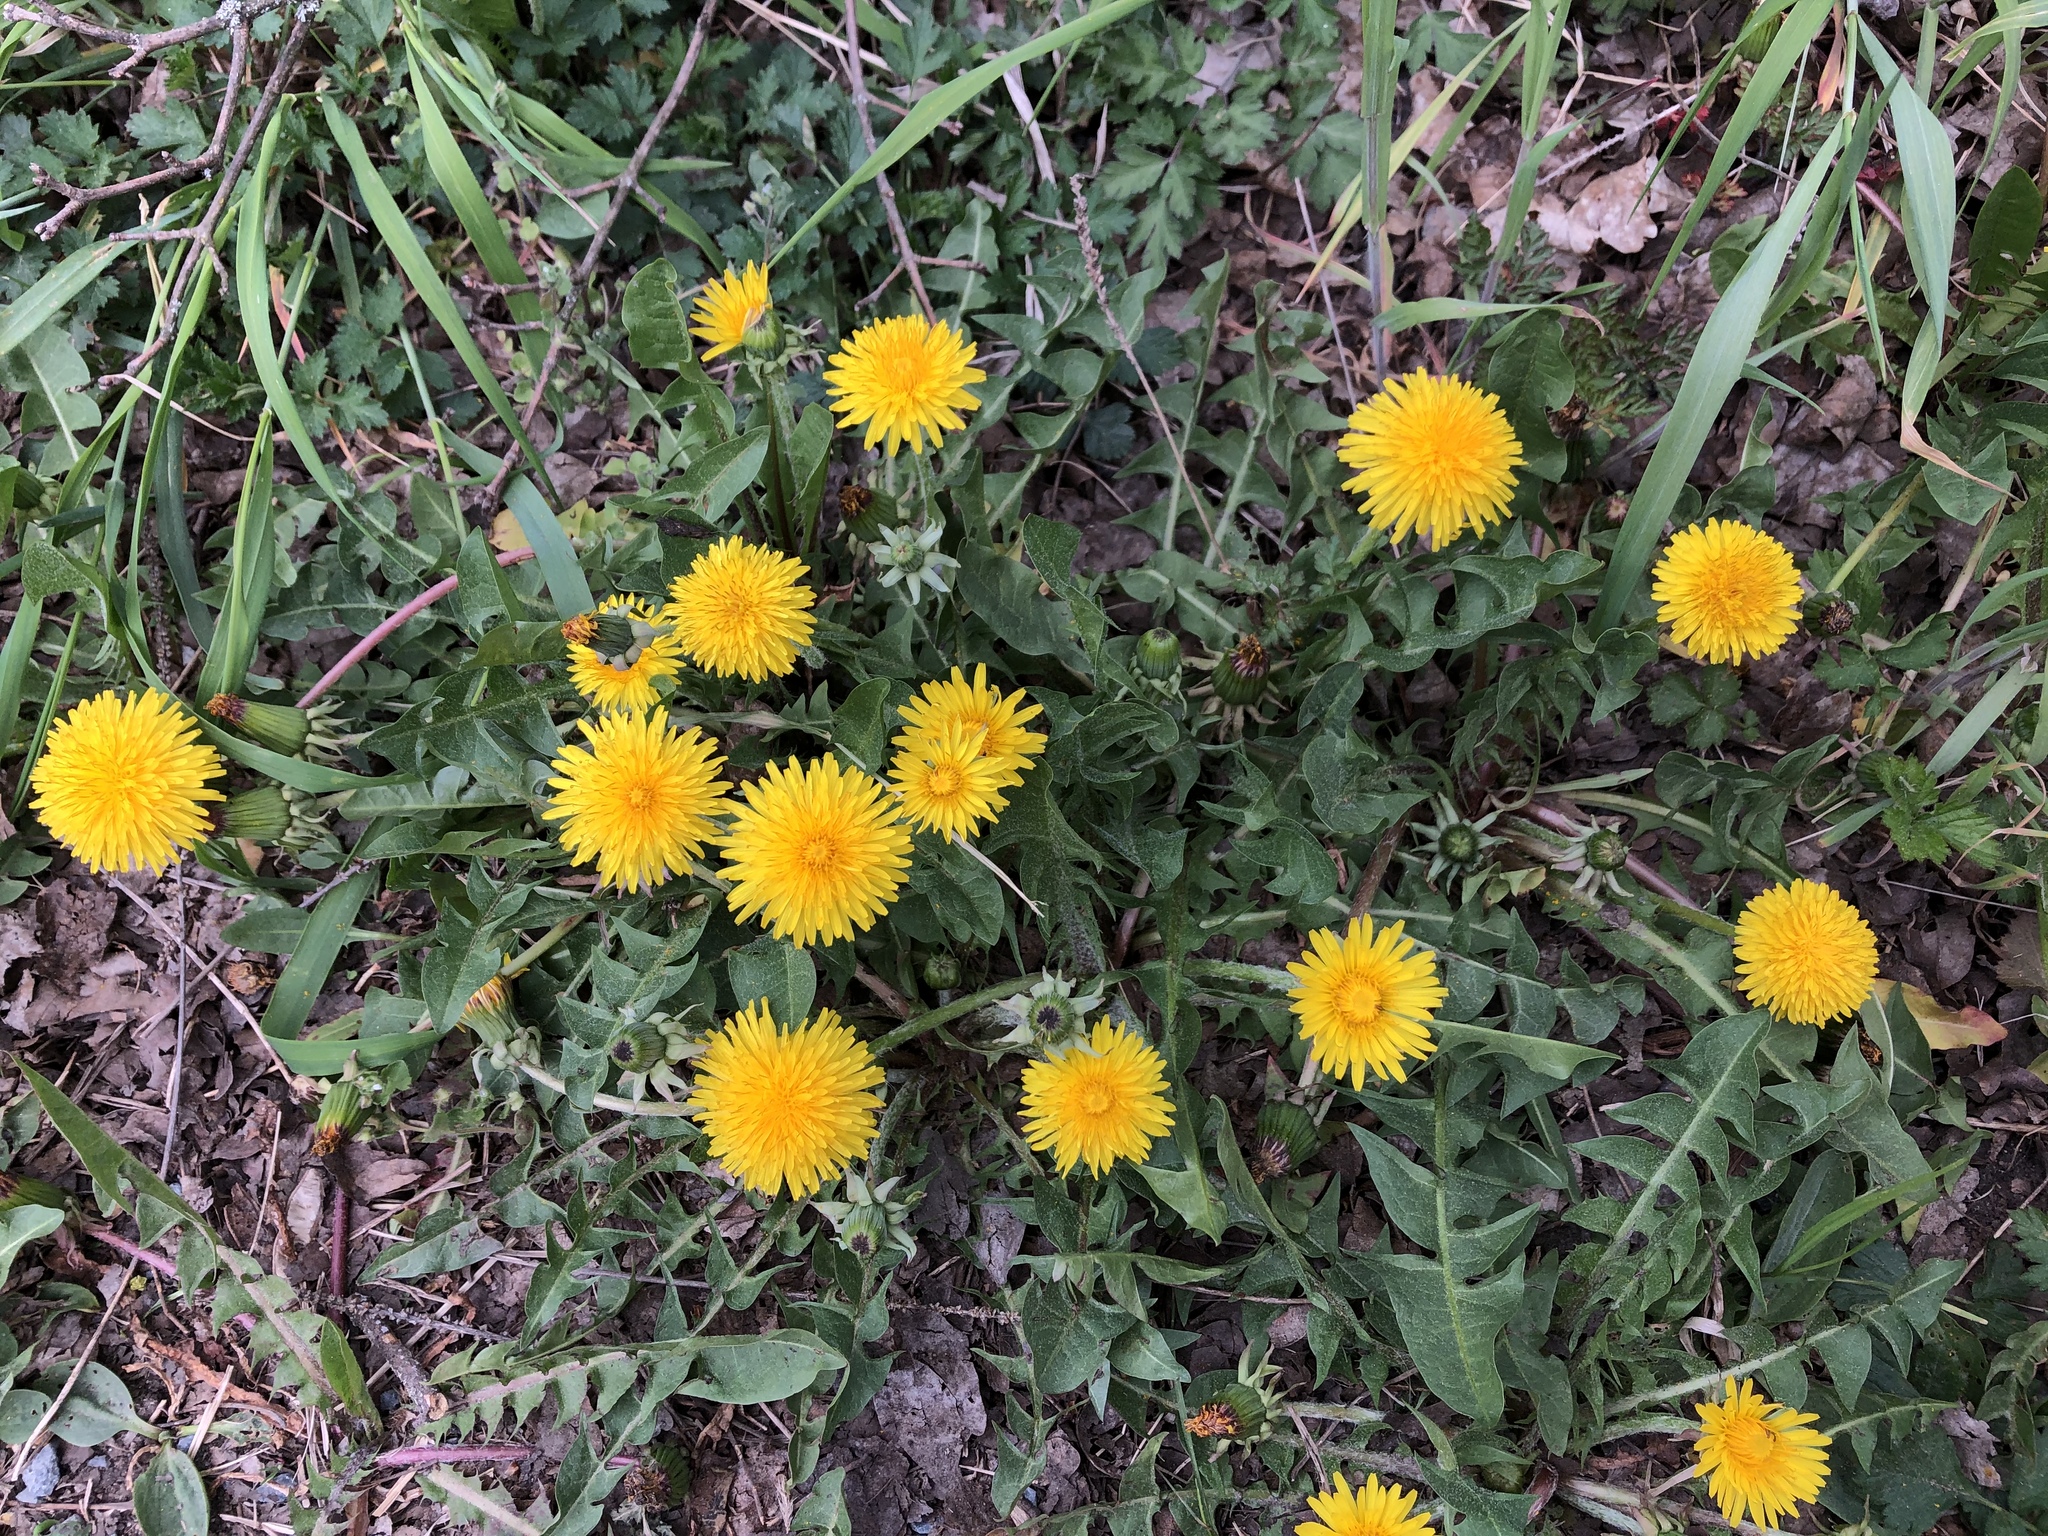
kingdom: Plantae
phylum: Tracheophyta
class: Magnoliopsida
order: Asterales
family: Asteraceae
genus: Taraxacum
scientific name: Taraxacum officinale
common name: Common dandelion
